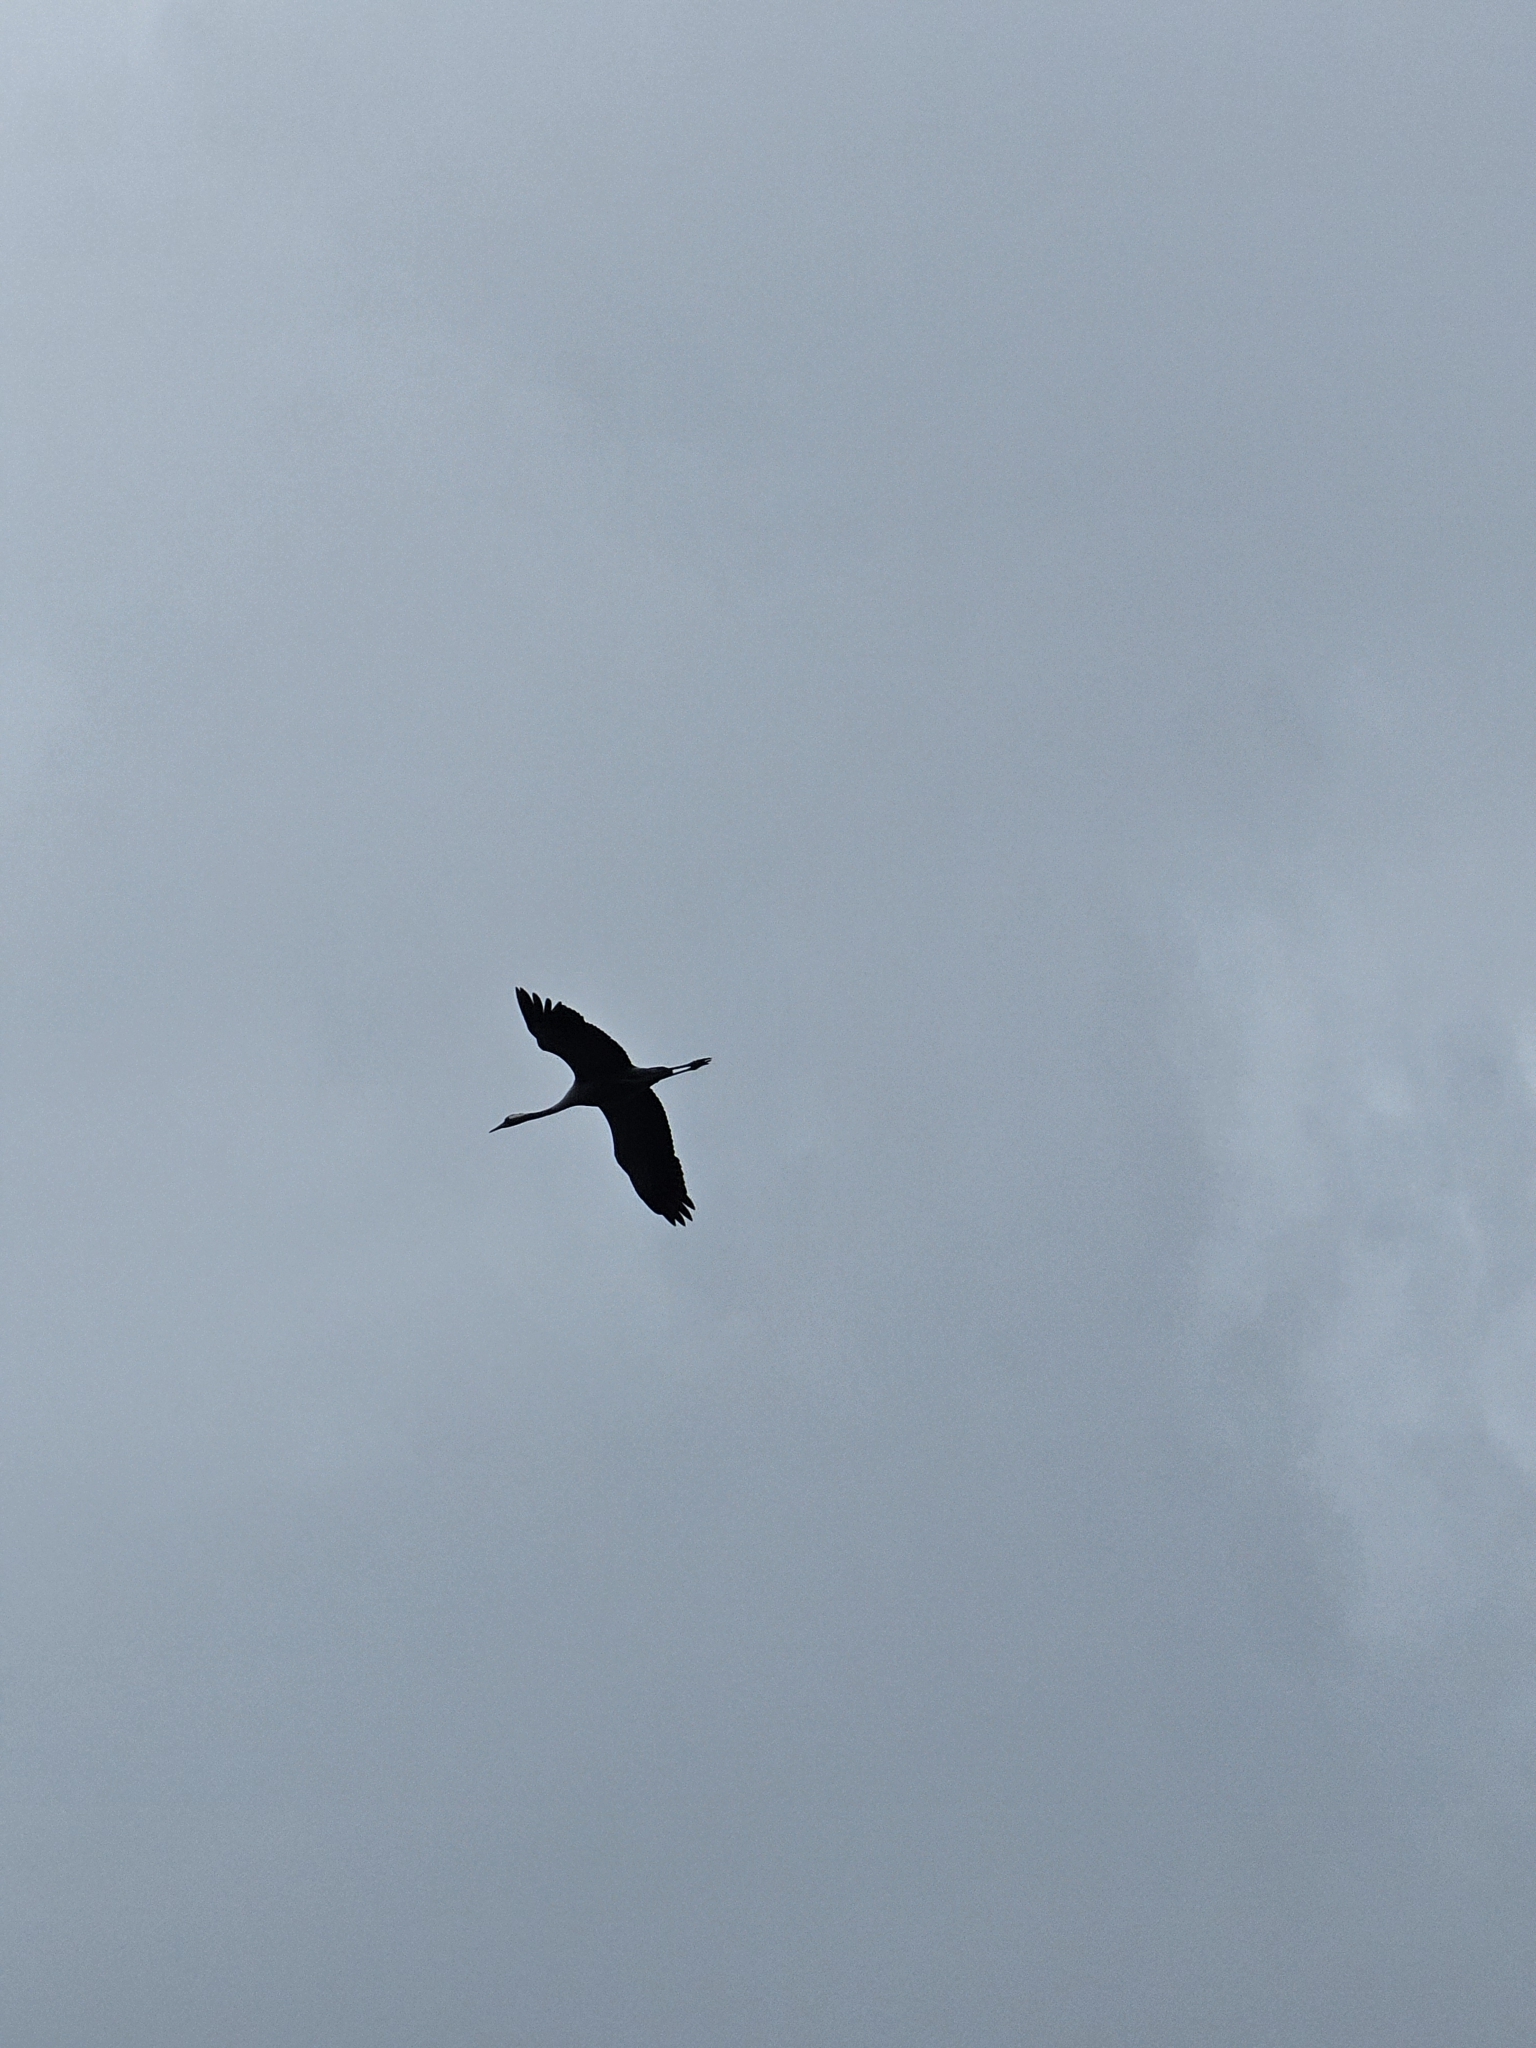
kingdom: Animalia
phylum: Chordata
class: Aves
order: Gruiformes
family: Gruidae
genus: Grus
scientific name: Grus grus
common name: Common crane
